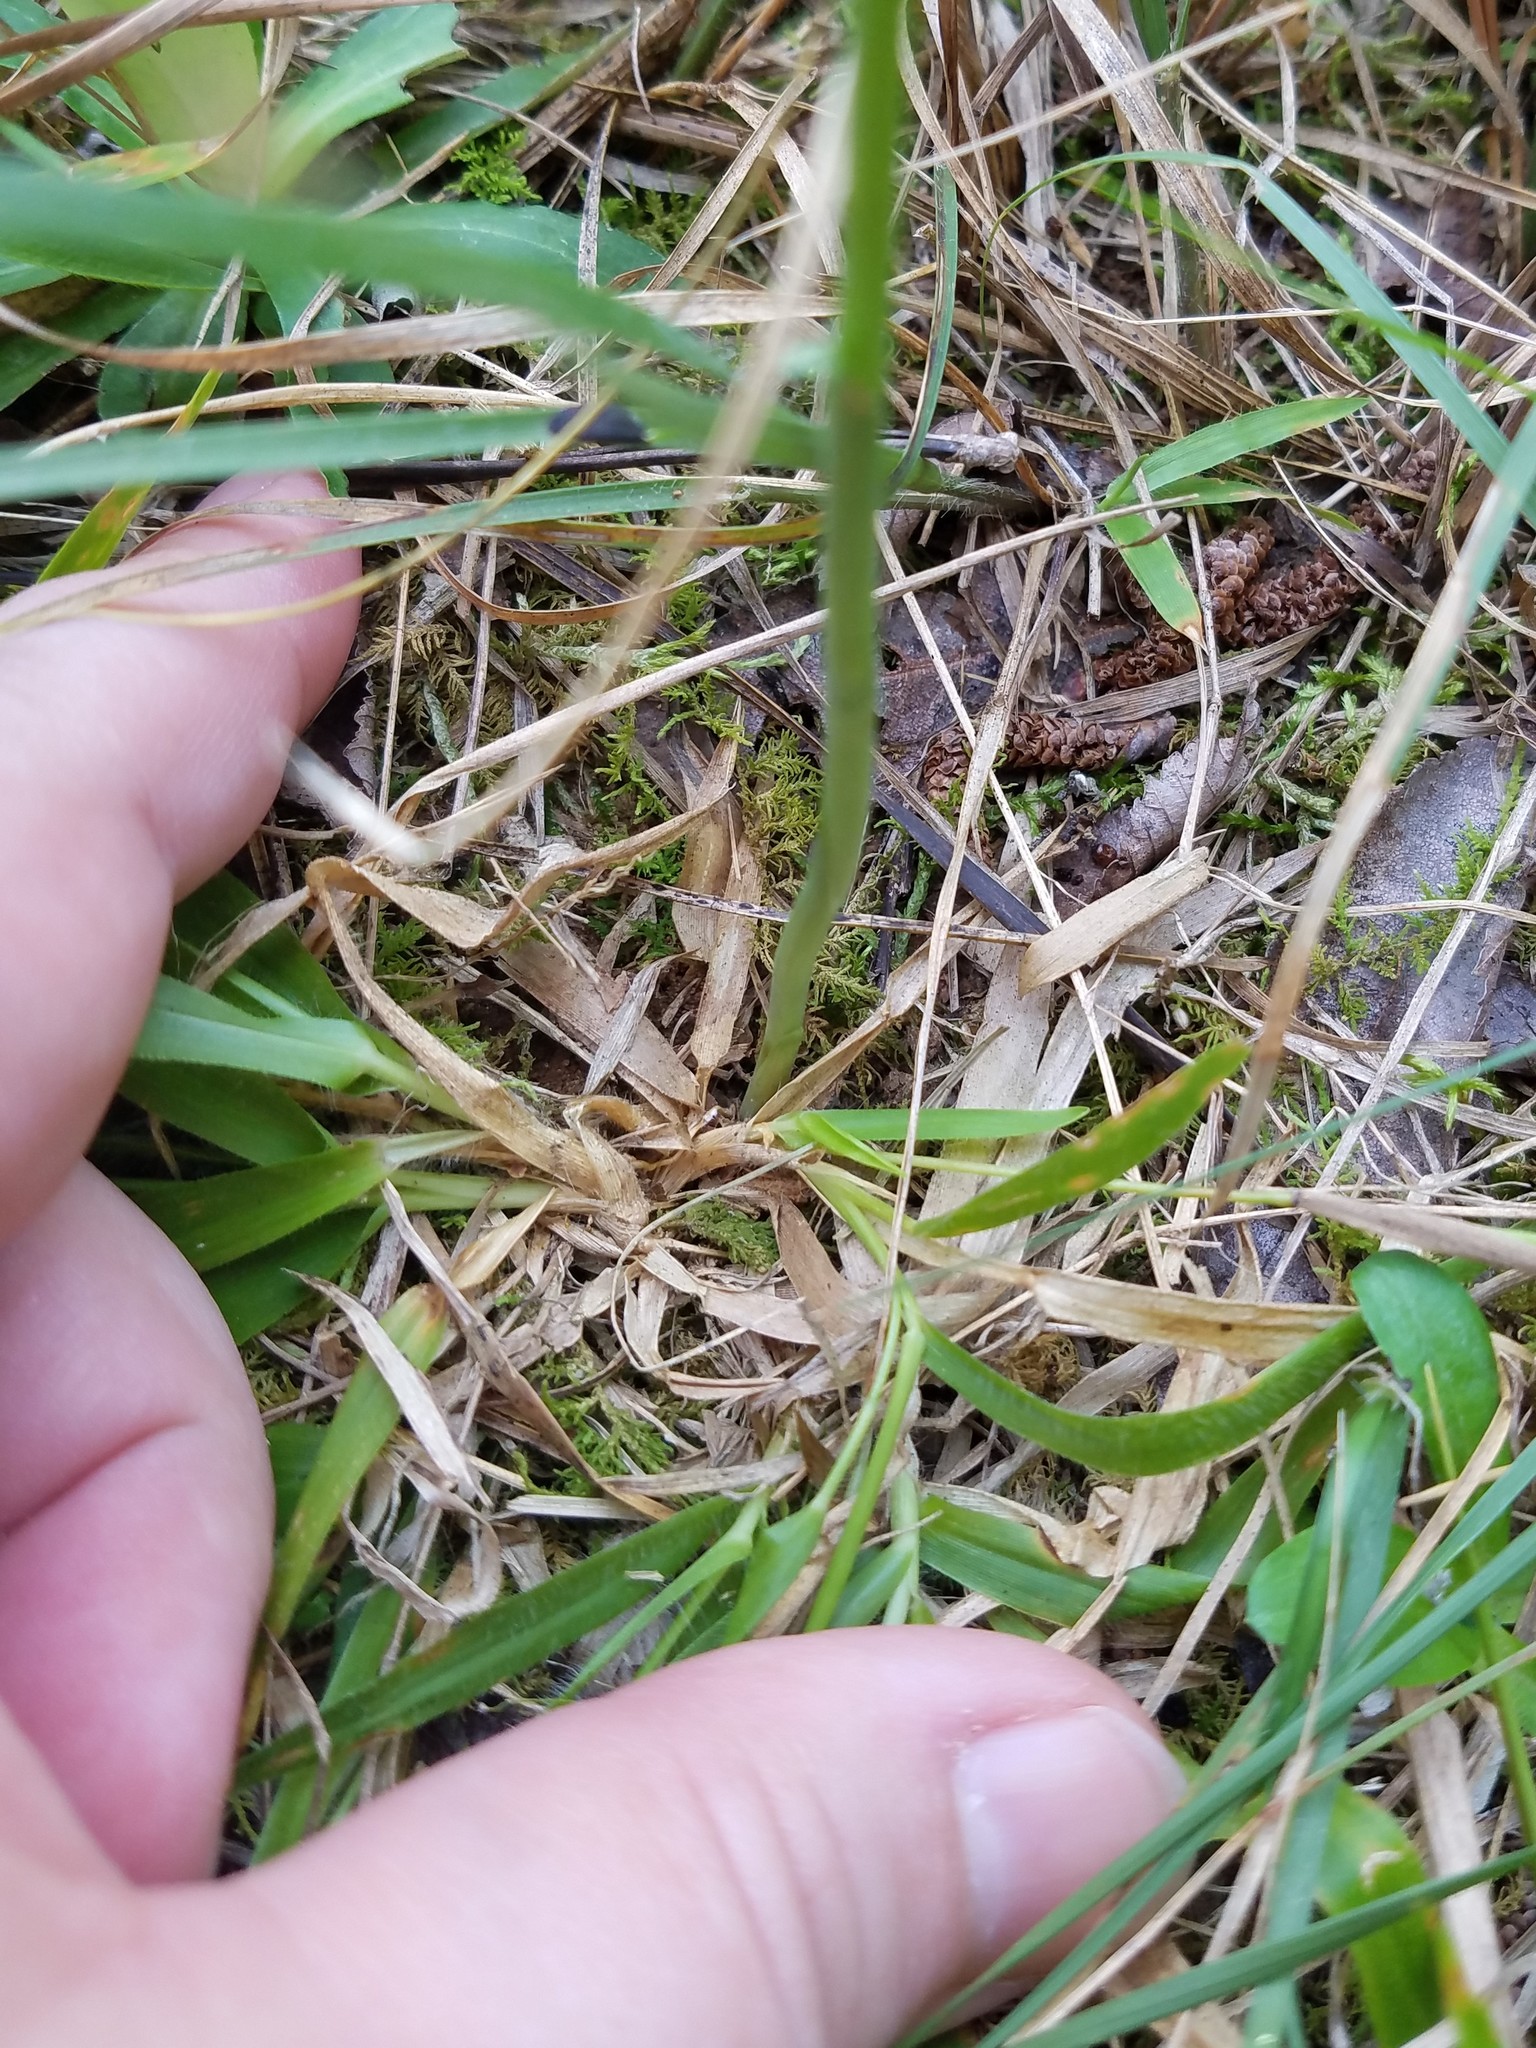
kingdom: Plantae
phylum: Tracheophyta
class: Liliopsida
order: Asparagales
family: Orchidaceae
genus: Spiranthes
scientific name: Spiranthes lacera
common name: Northern slender ladies'-tresses
